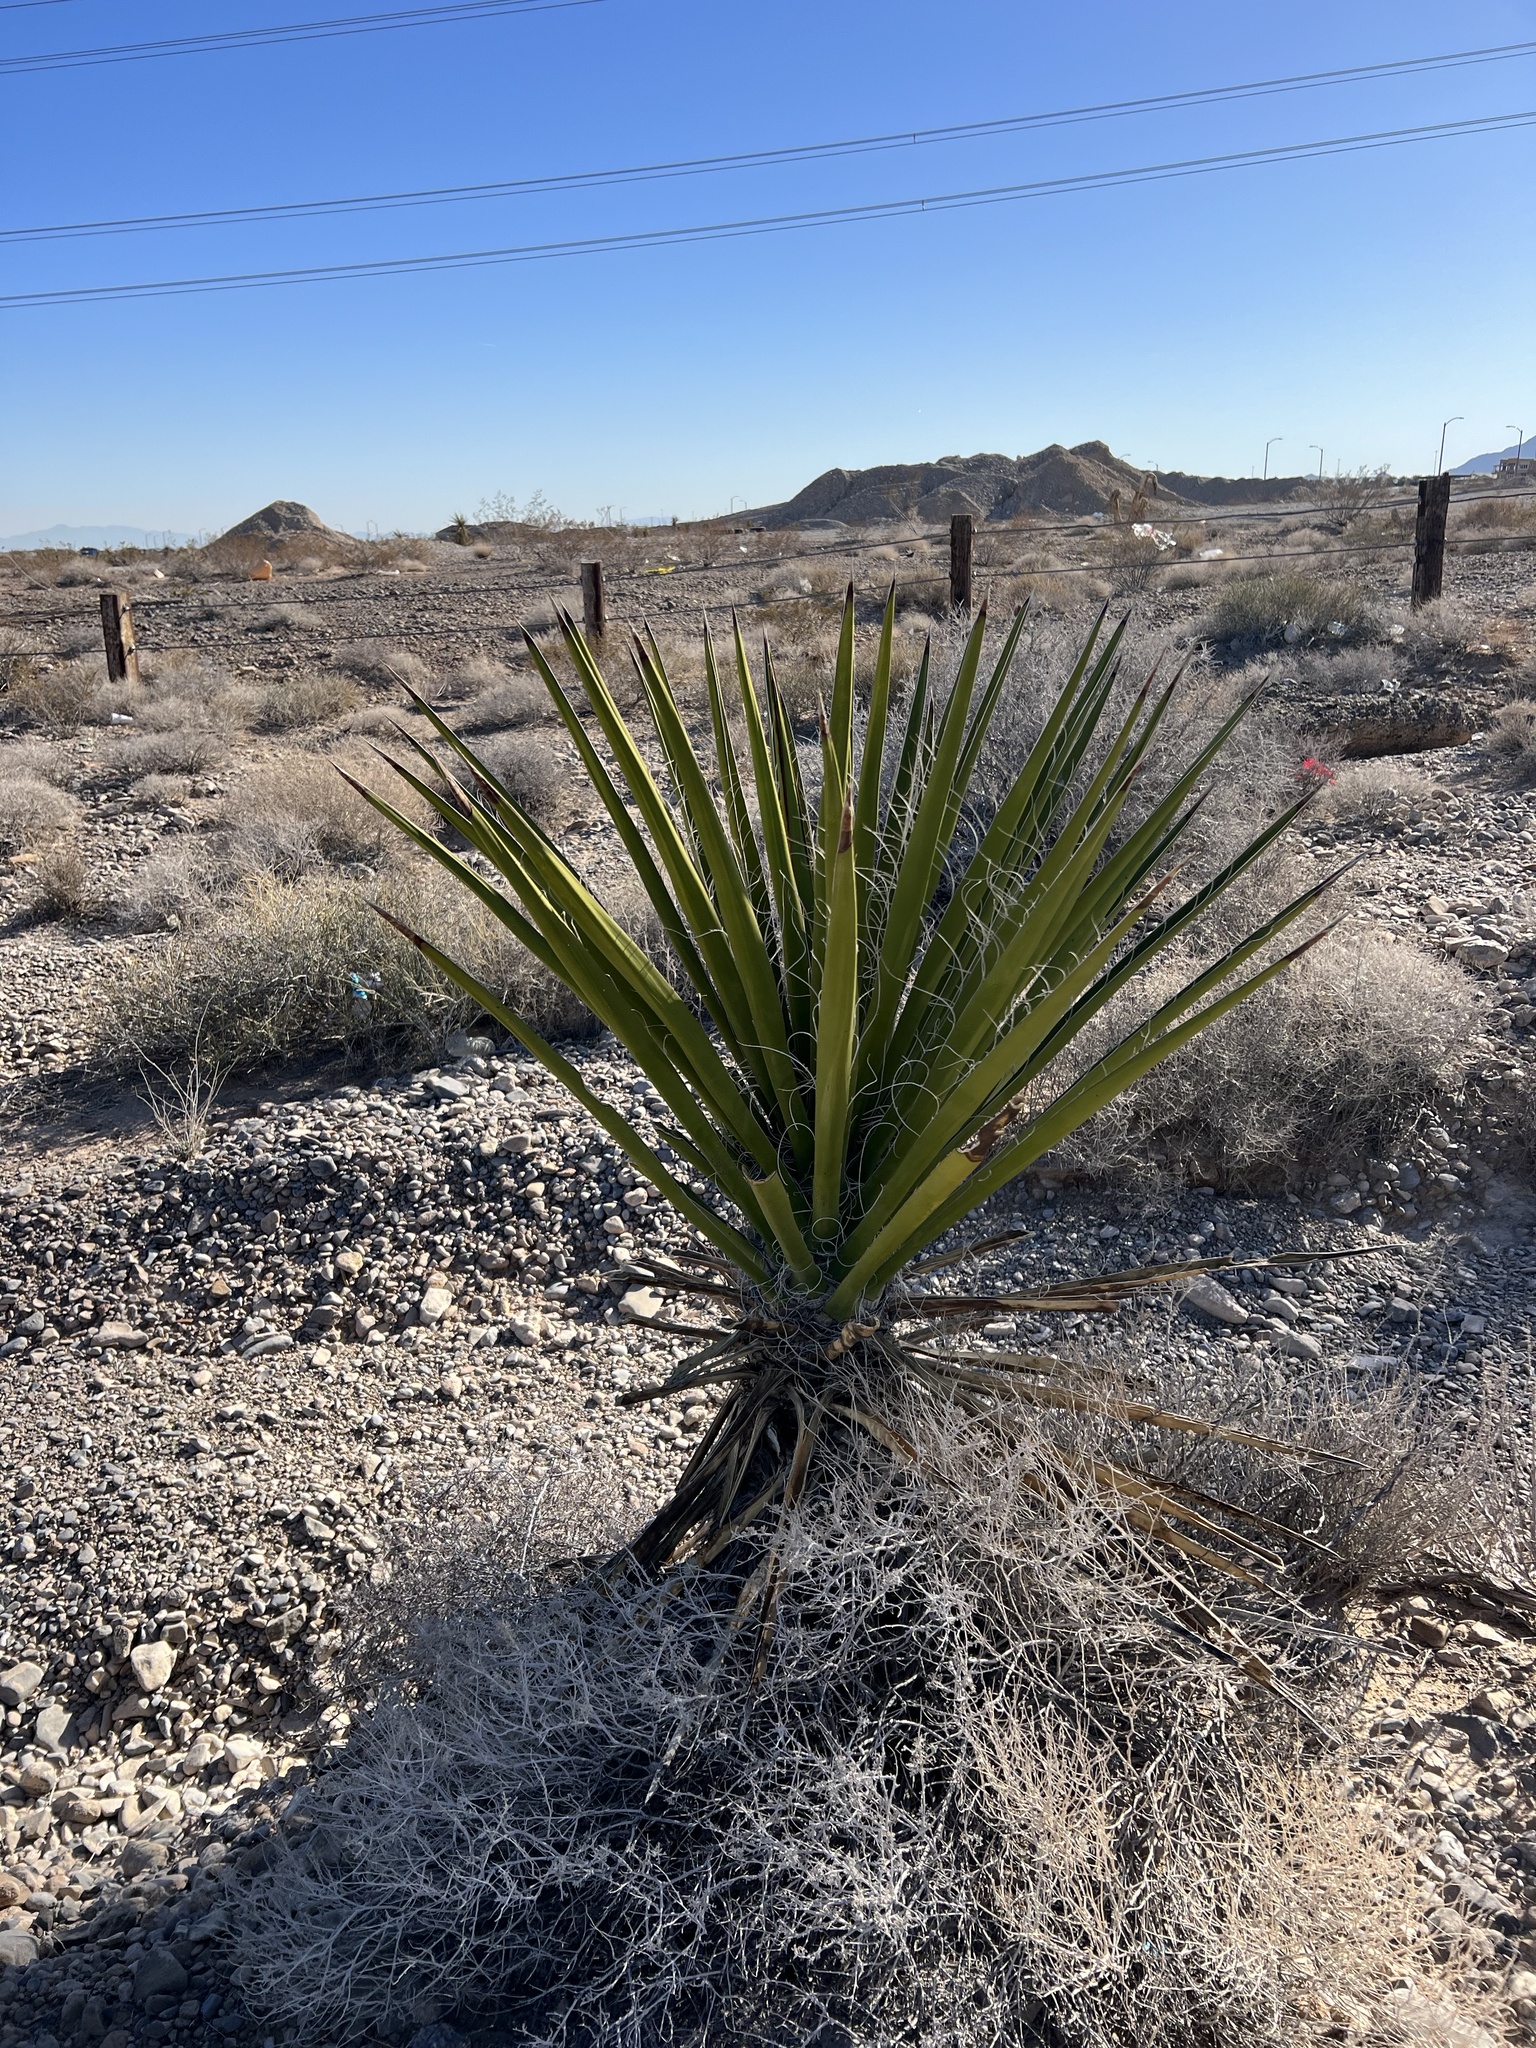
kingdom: Plantae
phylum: Tracheophyta
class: Liliopsida
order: Asparagales
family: Asparagaceae
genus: Yucca
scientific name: Yucca schidigera
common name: Mojave yucca
